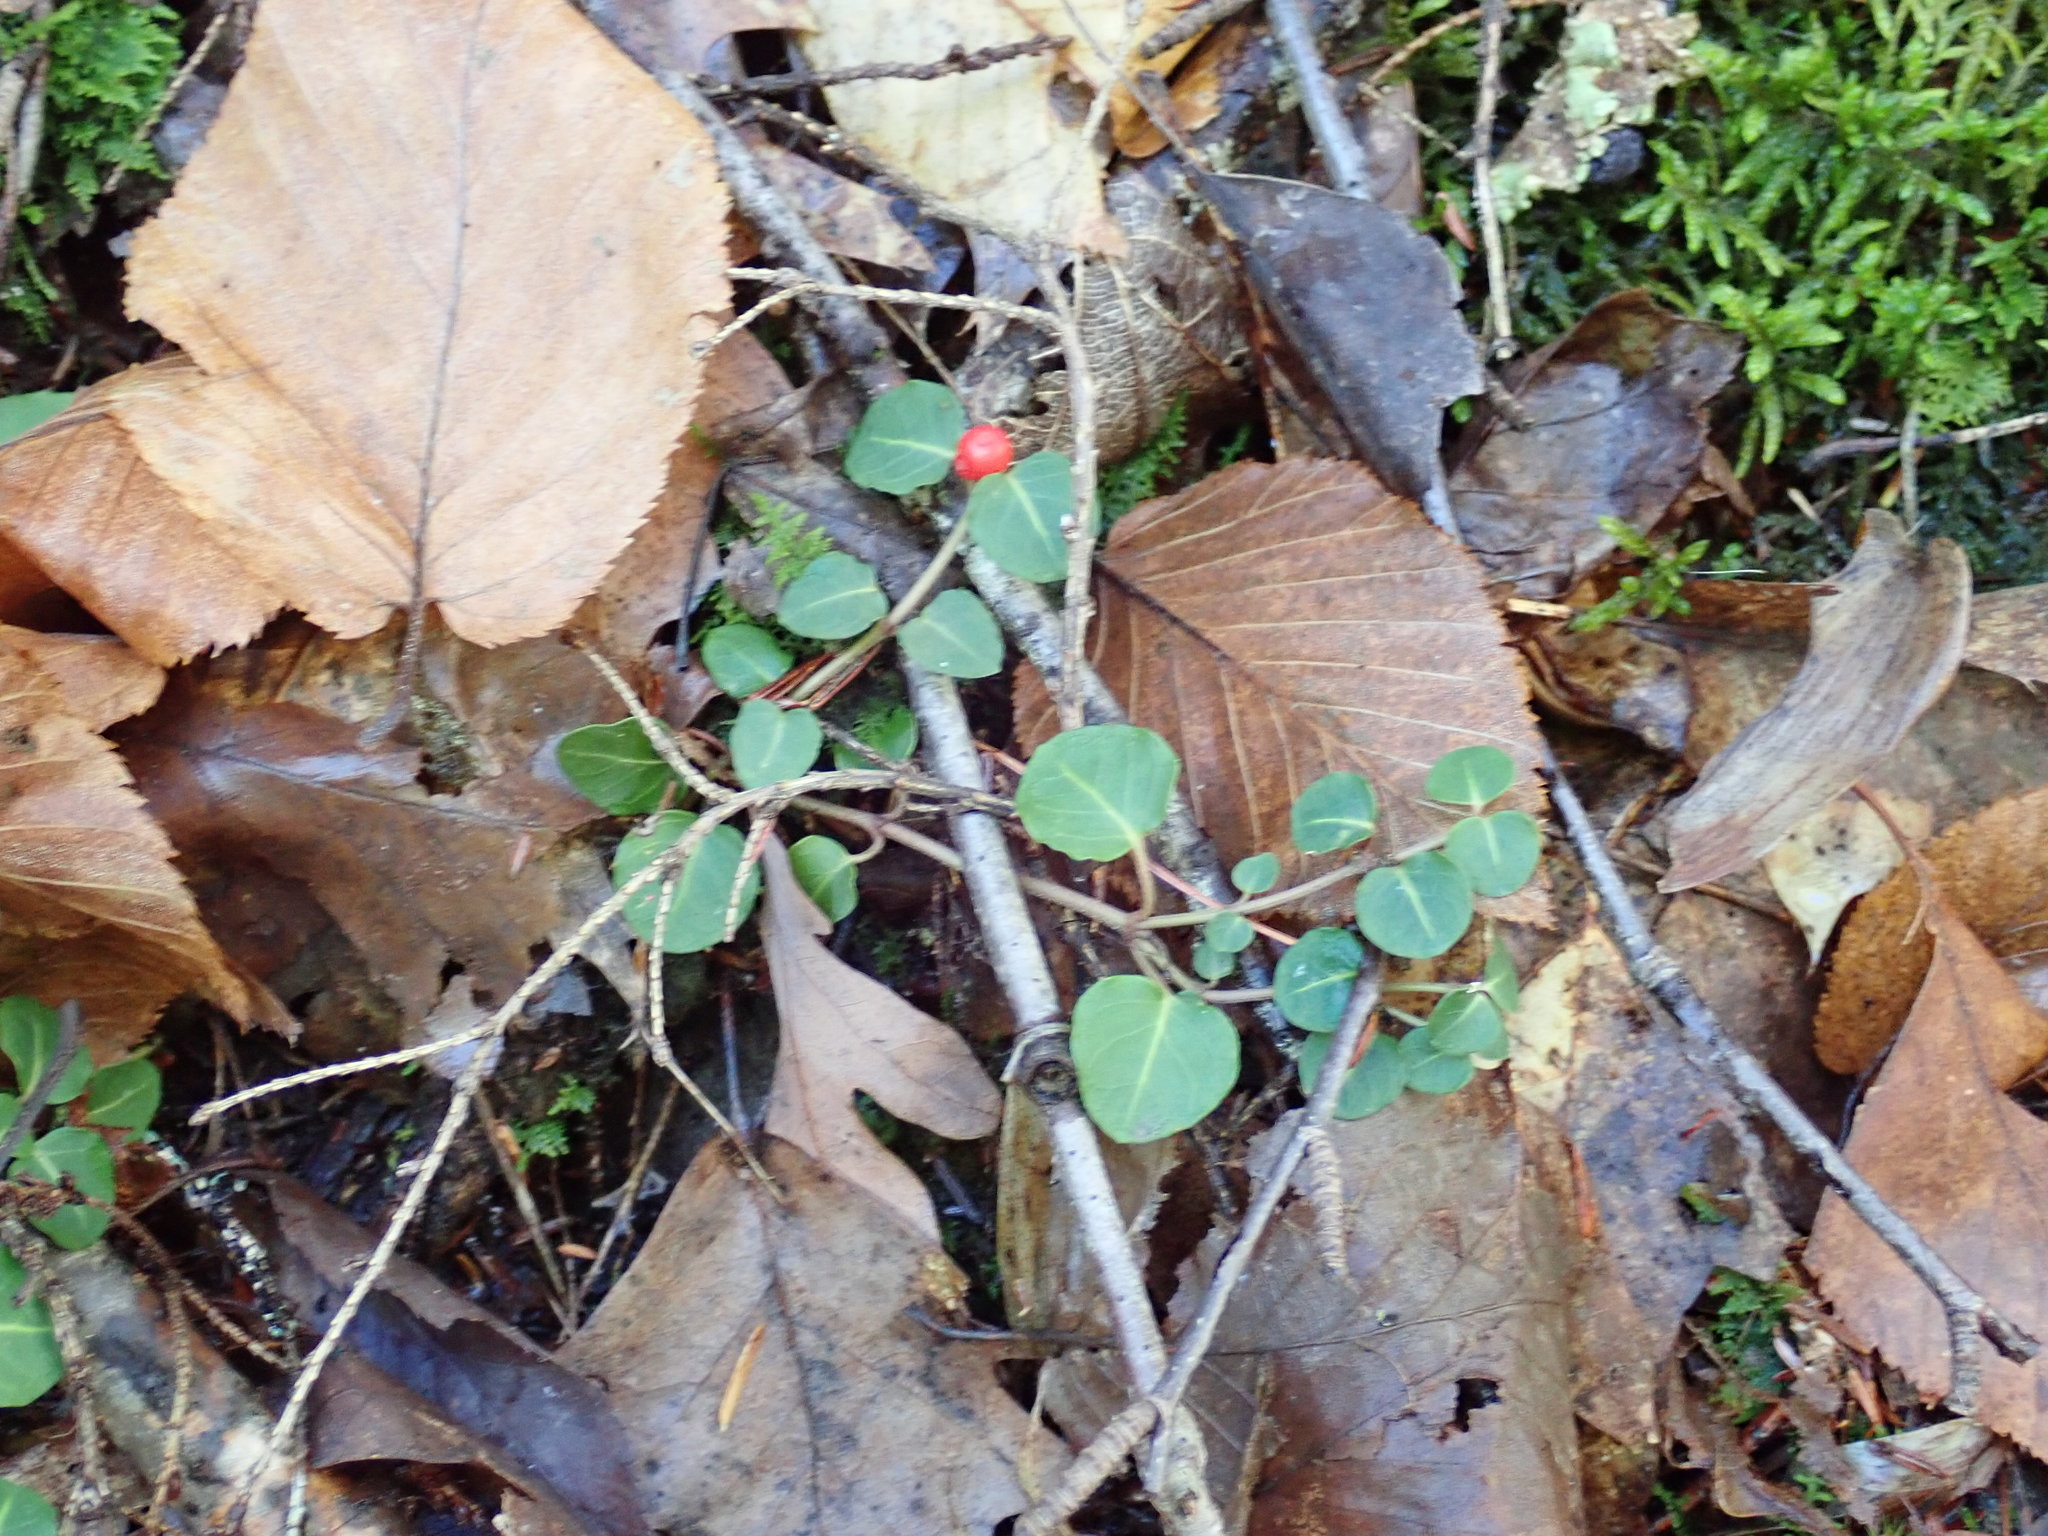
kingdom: Plantae
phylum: Tracheophyta
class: Magnoliopsida
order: Gentianales
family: Rubiaceae
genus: Mitchella
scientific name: Mitchella repens
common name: Partridge-berry
